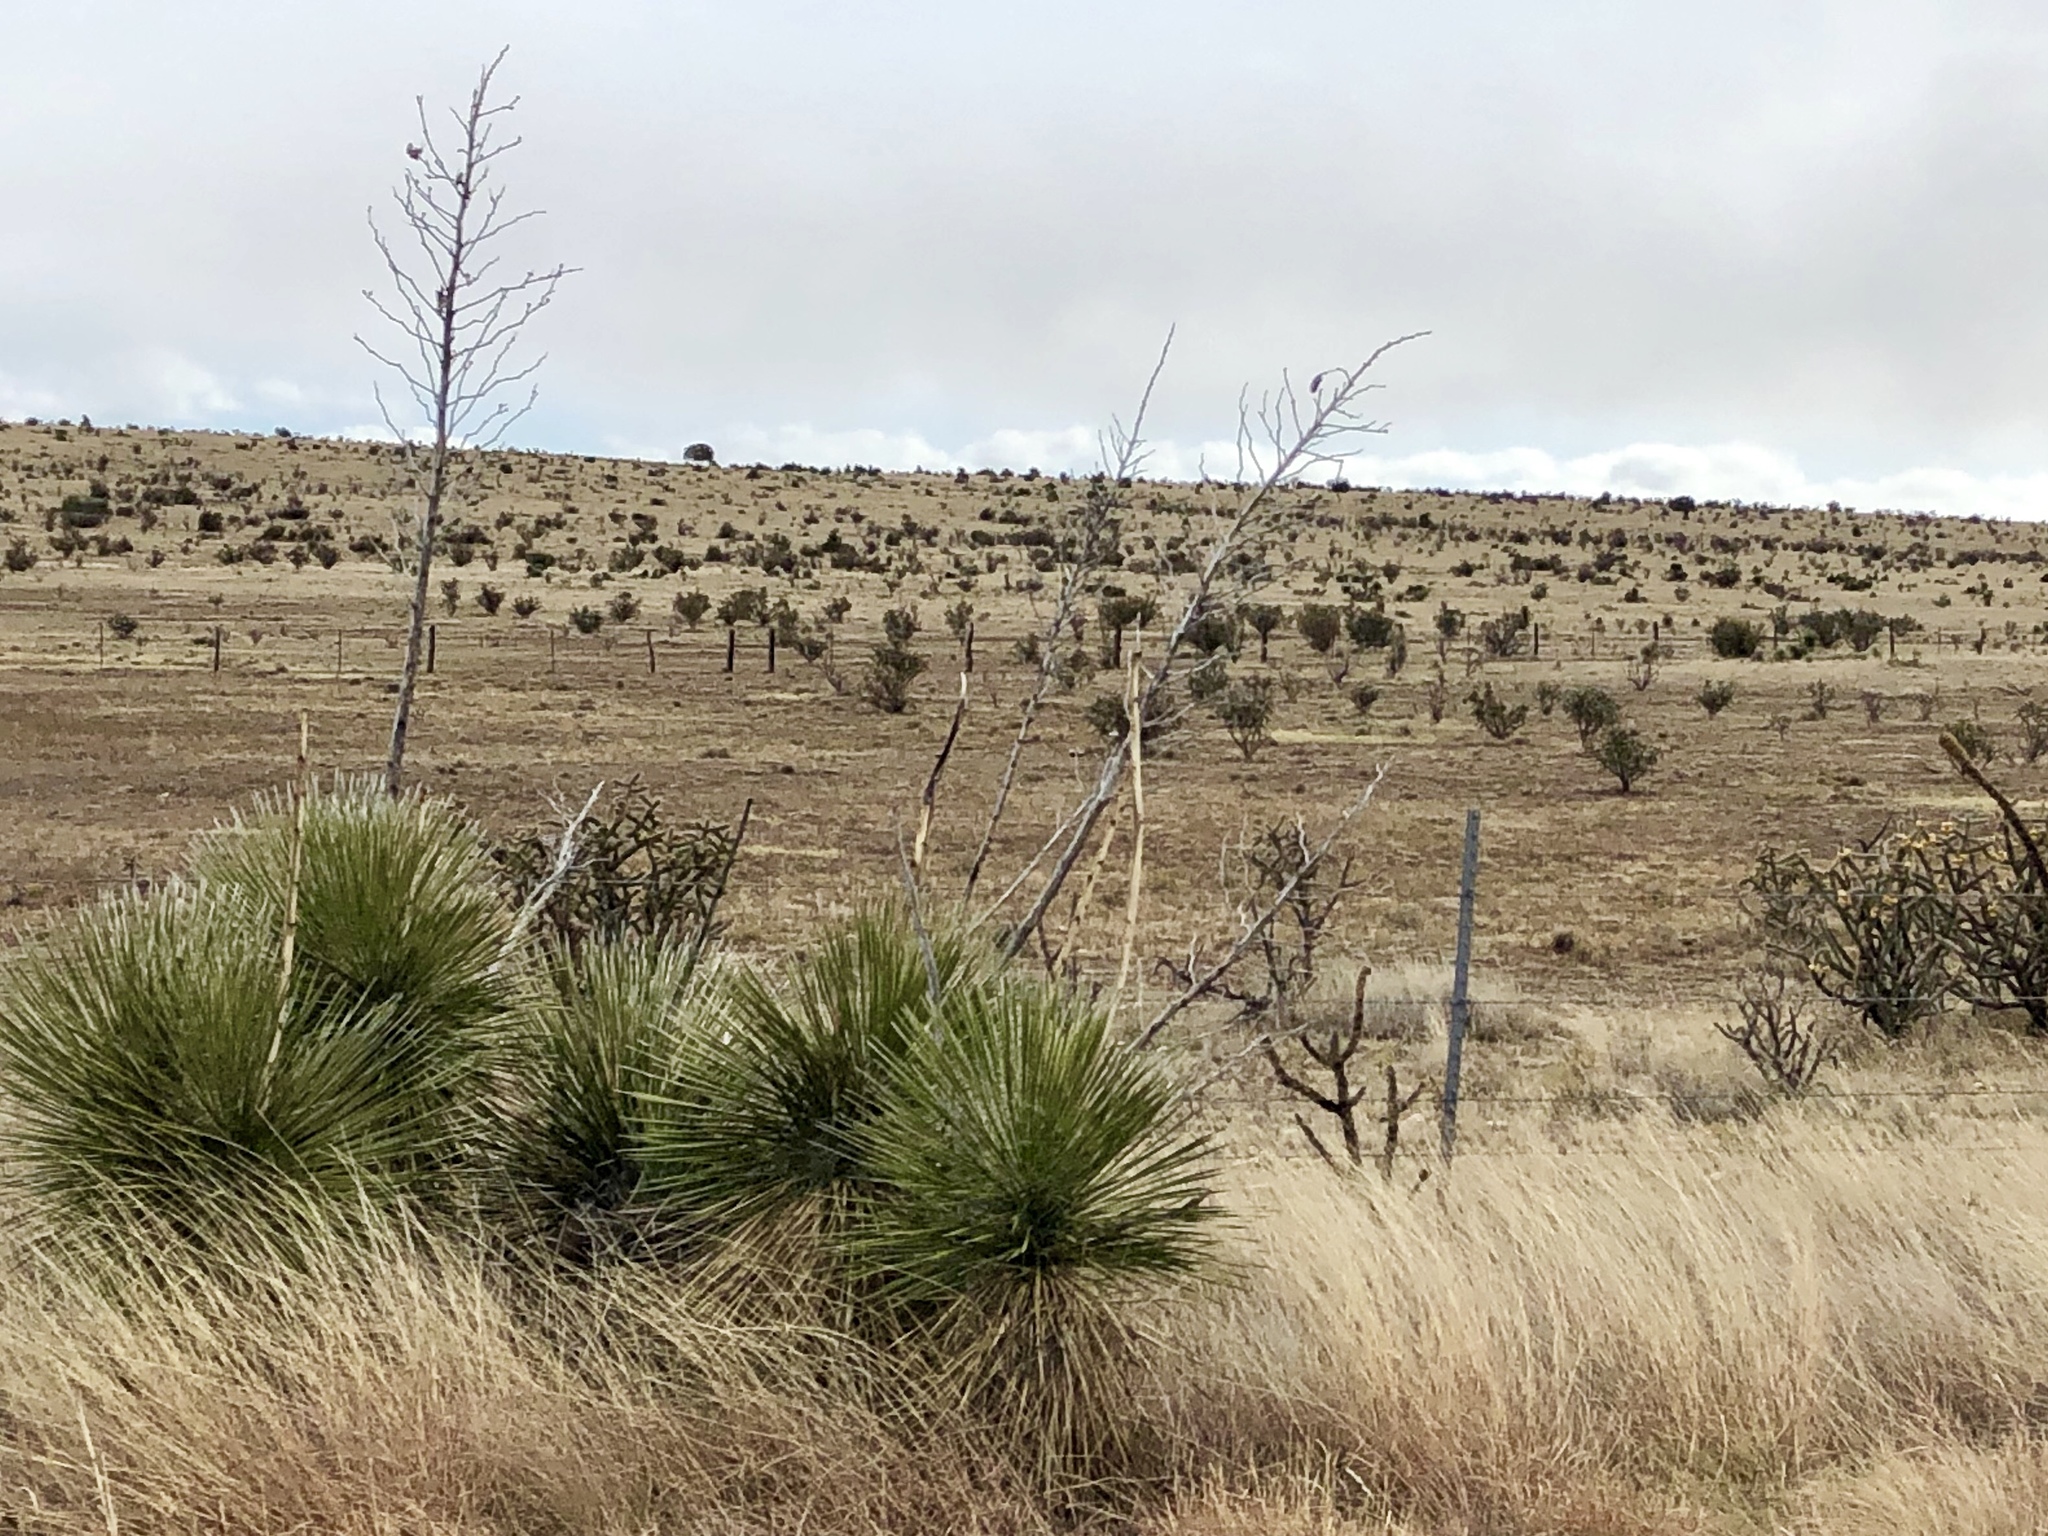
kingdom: Plantae
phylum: Tracheophyta
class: Liliopsida
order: Asparagales
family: Asparagaceae
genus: Yucca
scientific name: Yucca elata
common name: Palmella
